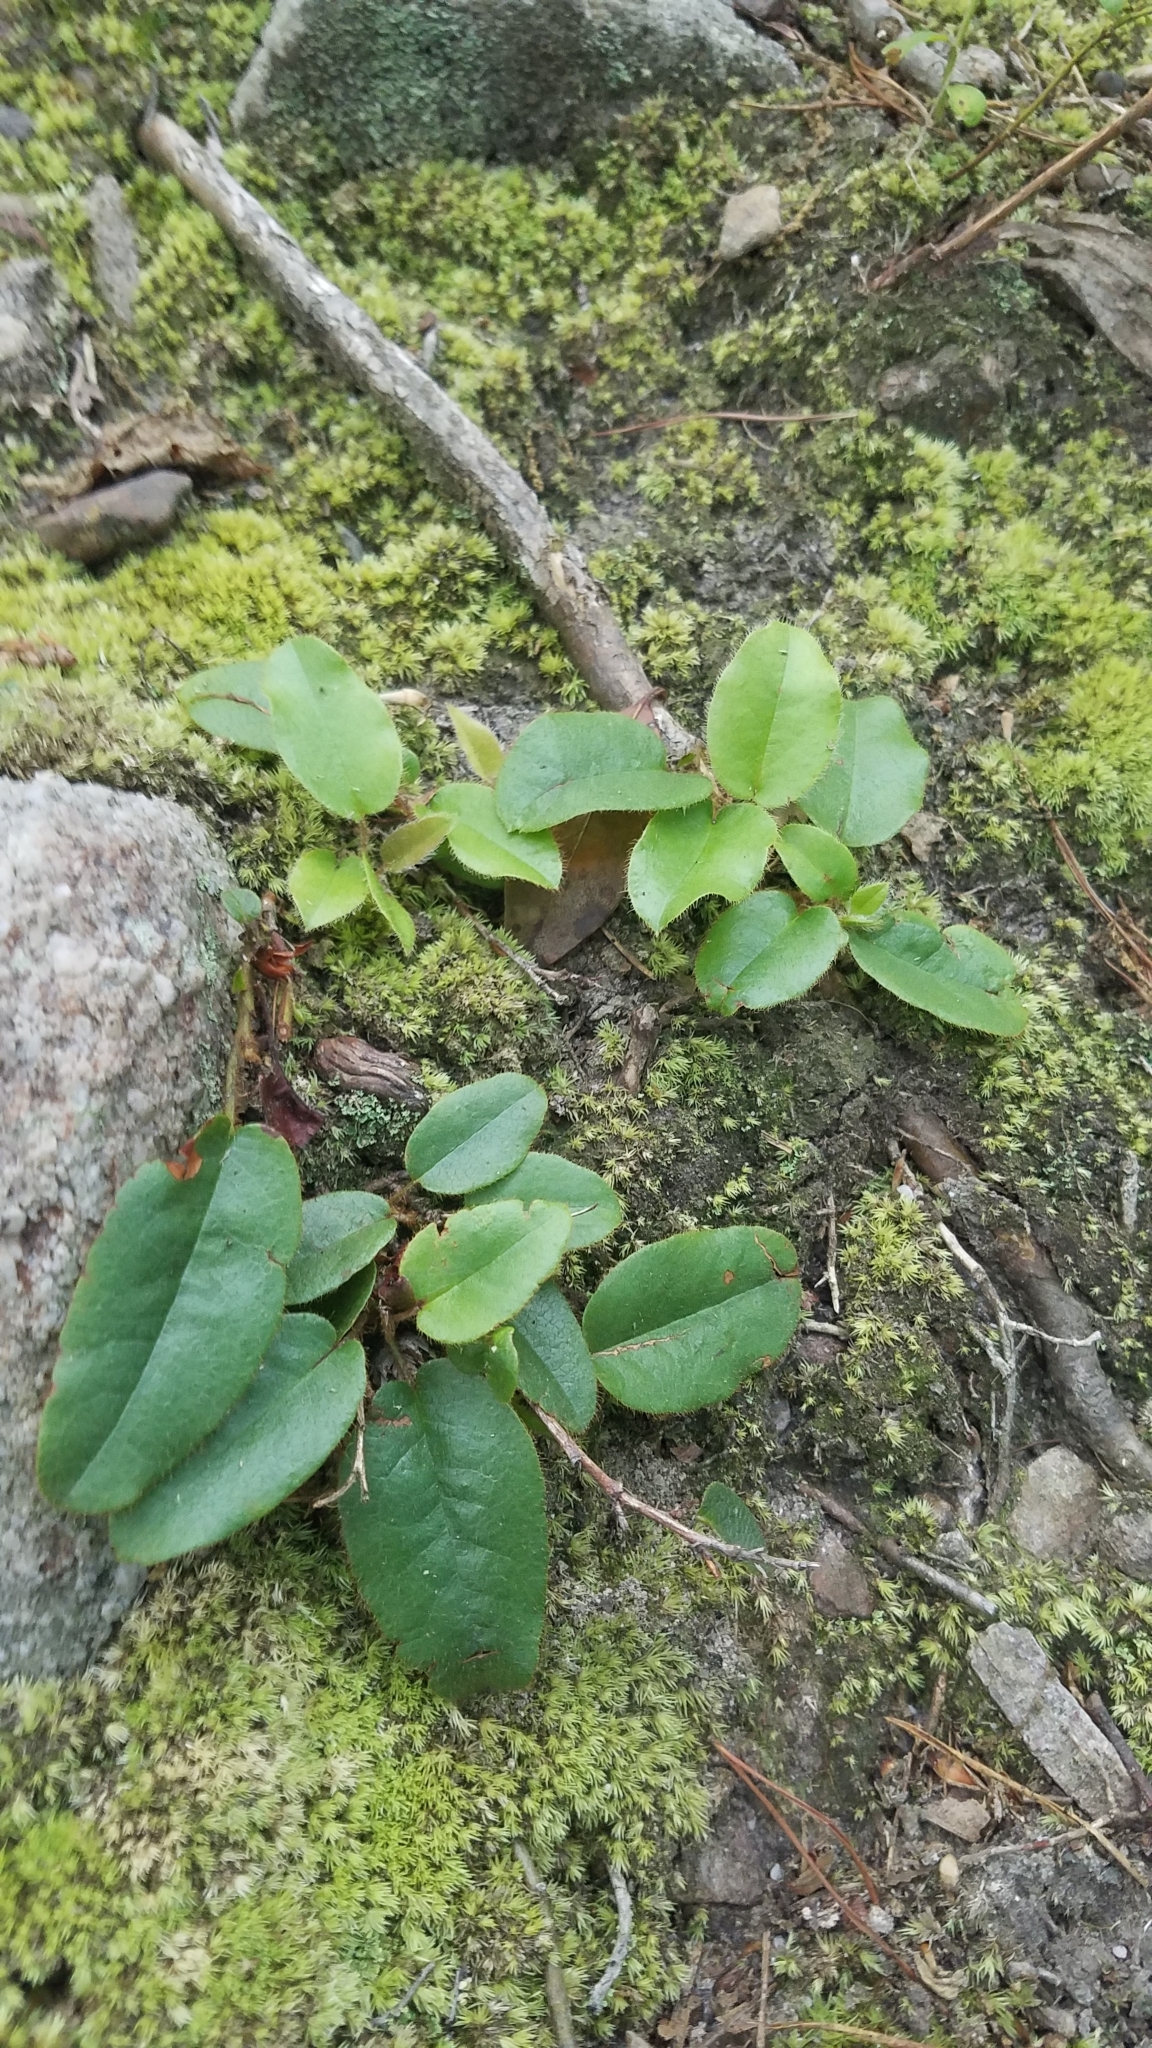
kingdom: Plantae
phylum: Tracheophyta
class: Magnoliopsida
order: Ericales
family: Ericaceae
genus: Epigaea
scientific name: Epigaea repens
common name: Gravelroot
